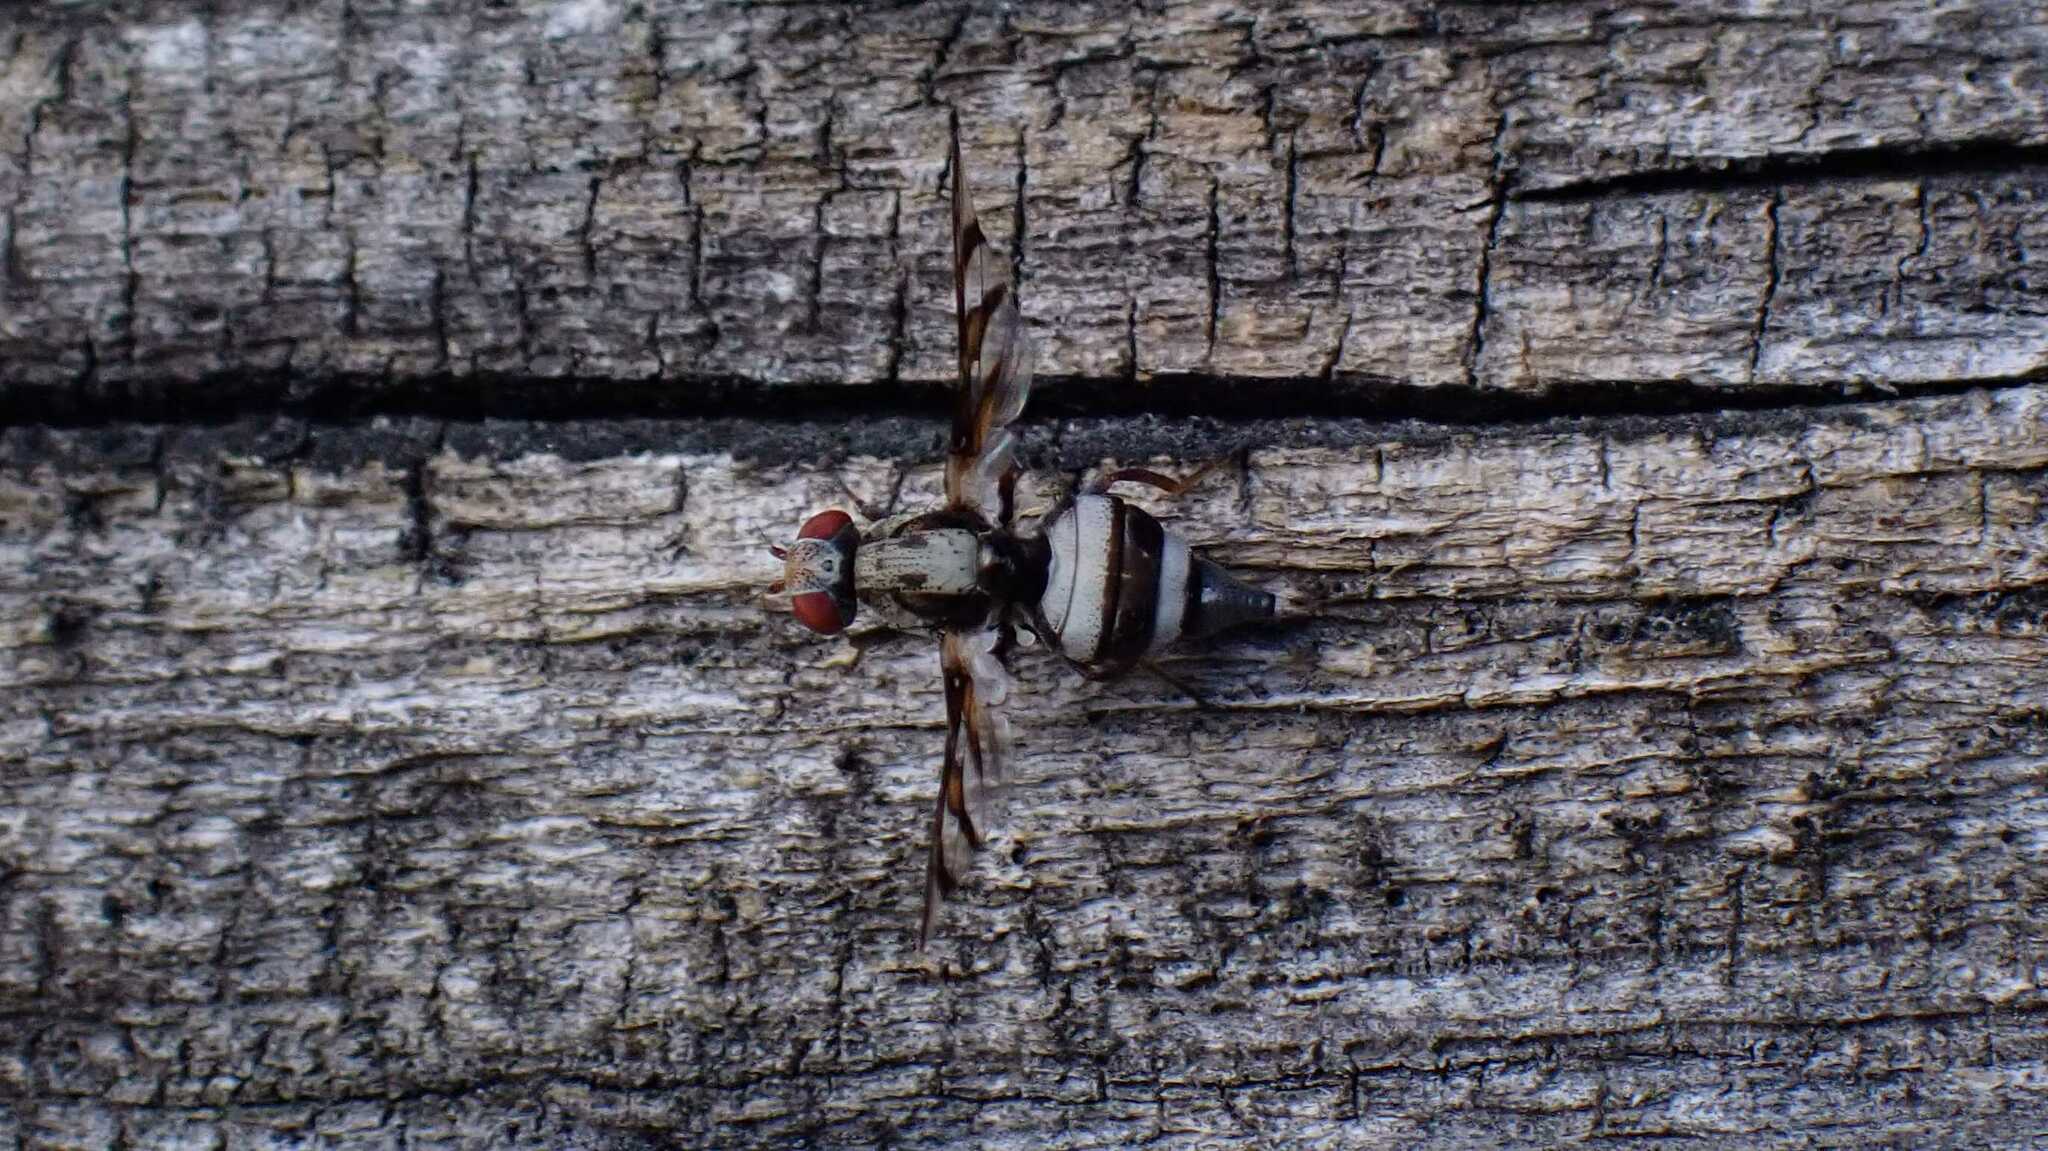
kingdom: Animalia
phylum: Arthropoda
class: Insecta
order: Diptera
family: Ulidiidae
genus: Myennis
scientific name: Myennis octopunctata
